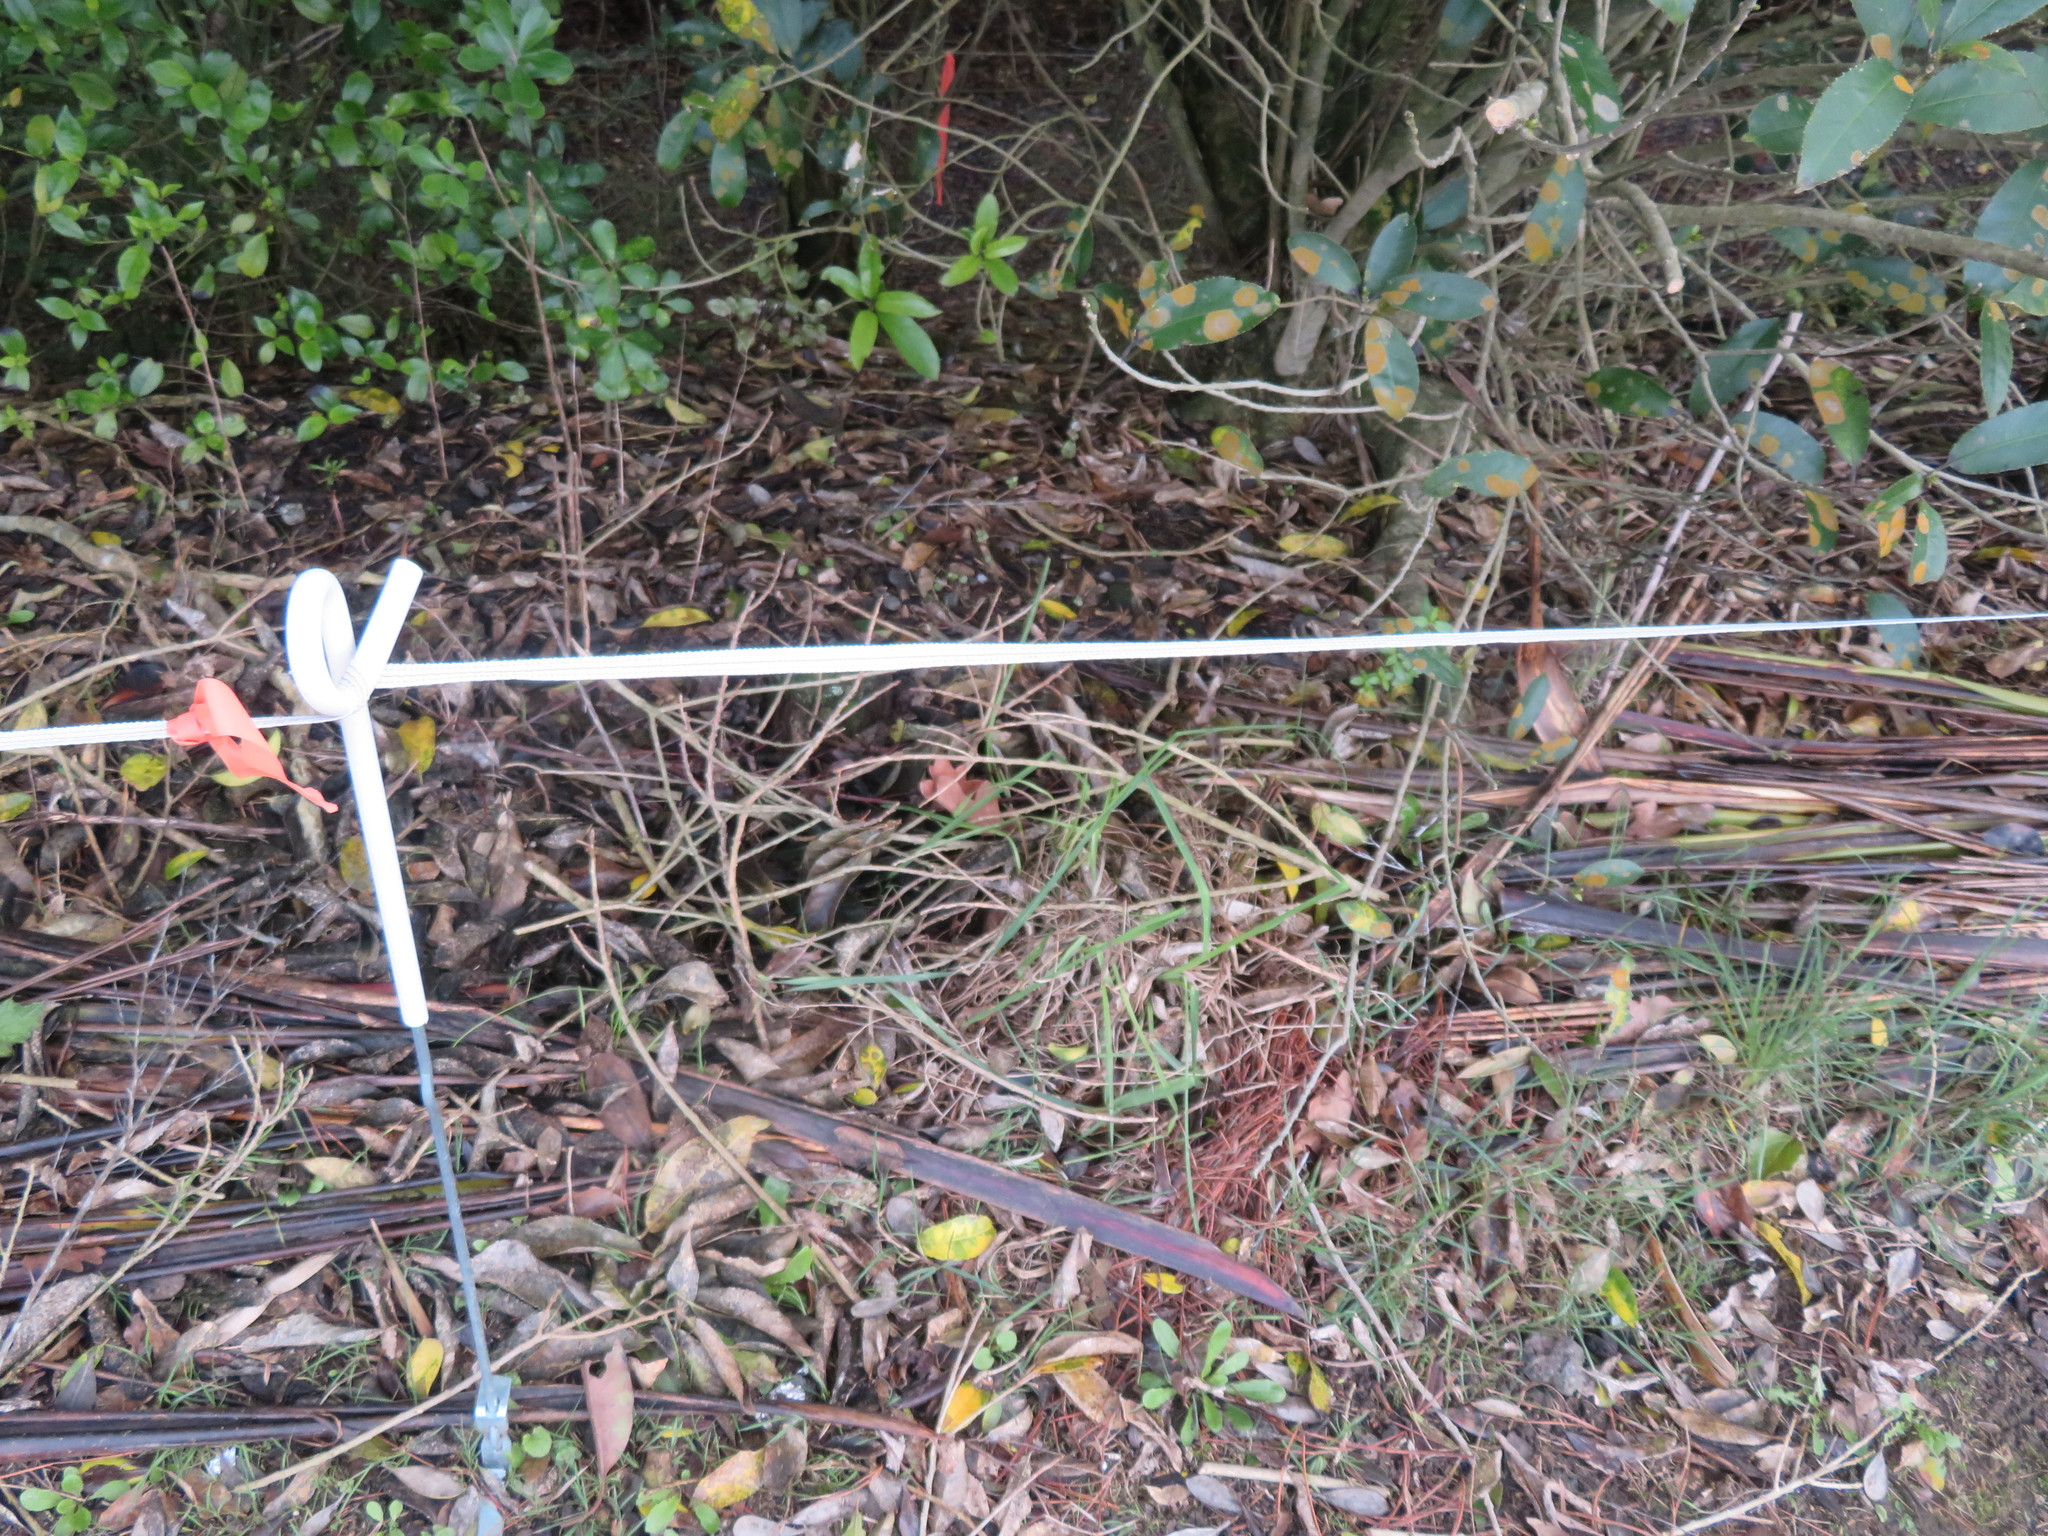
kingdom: Plantae
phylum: Tracheophyta
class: Liliopsida
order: Poales
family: Poaceae
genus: Cenchrus
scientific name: Cenchrus clandestinus
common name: Kikuyugrass
